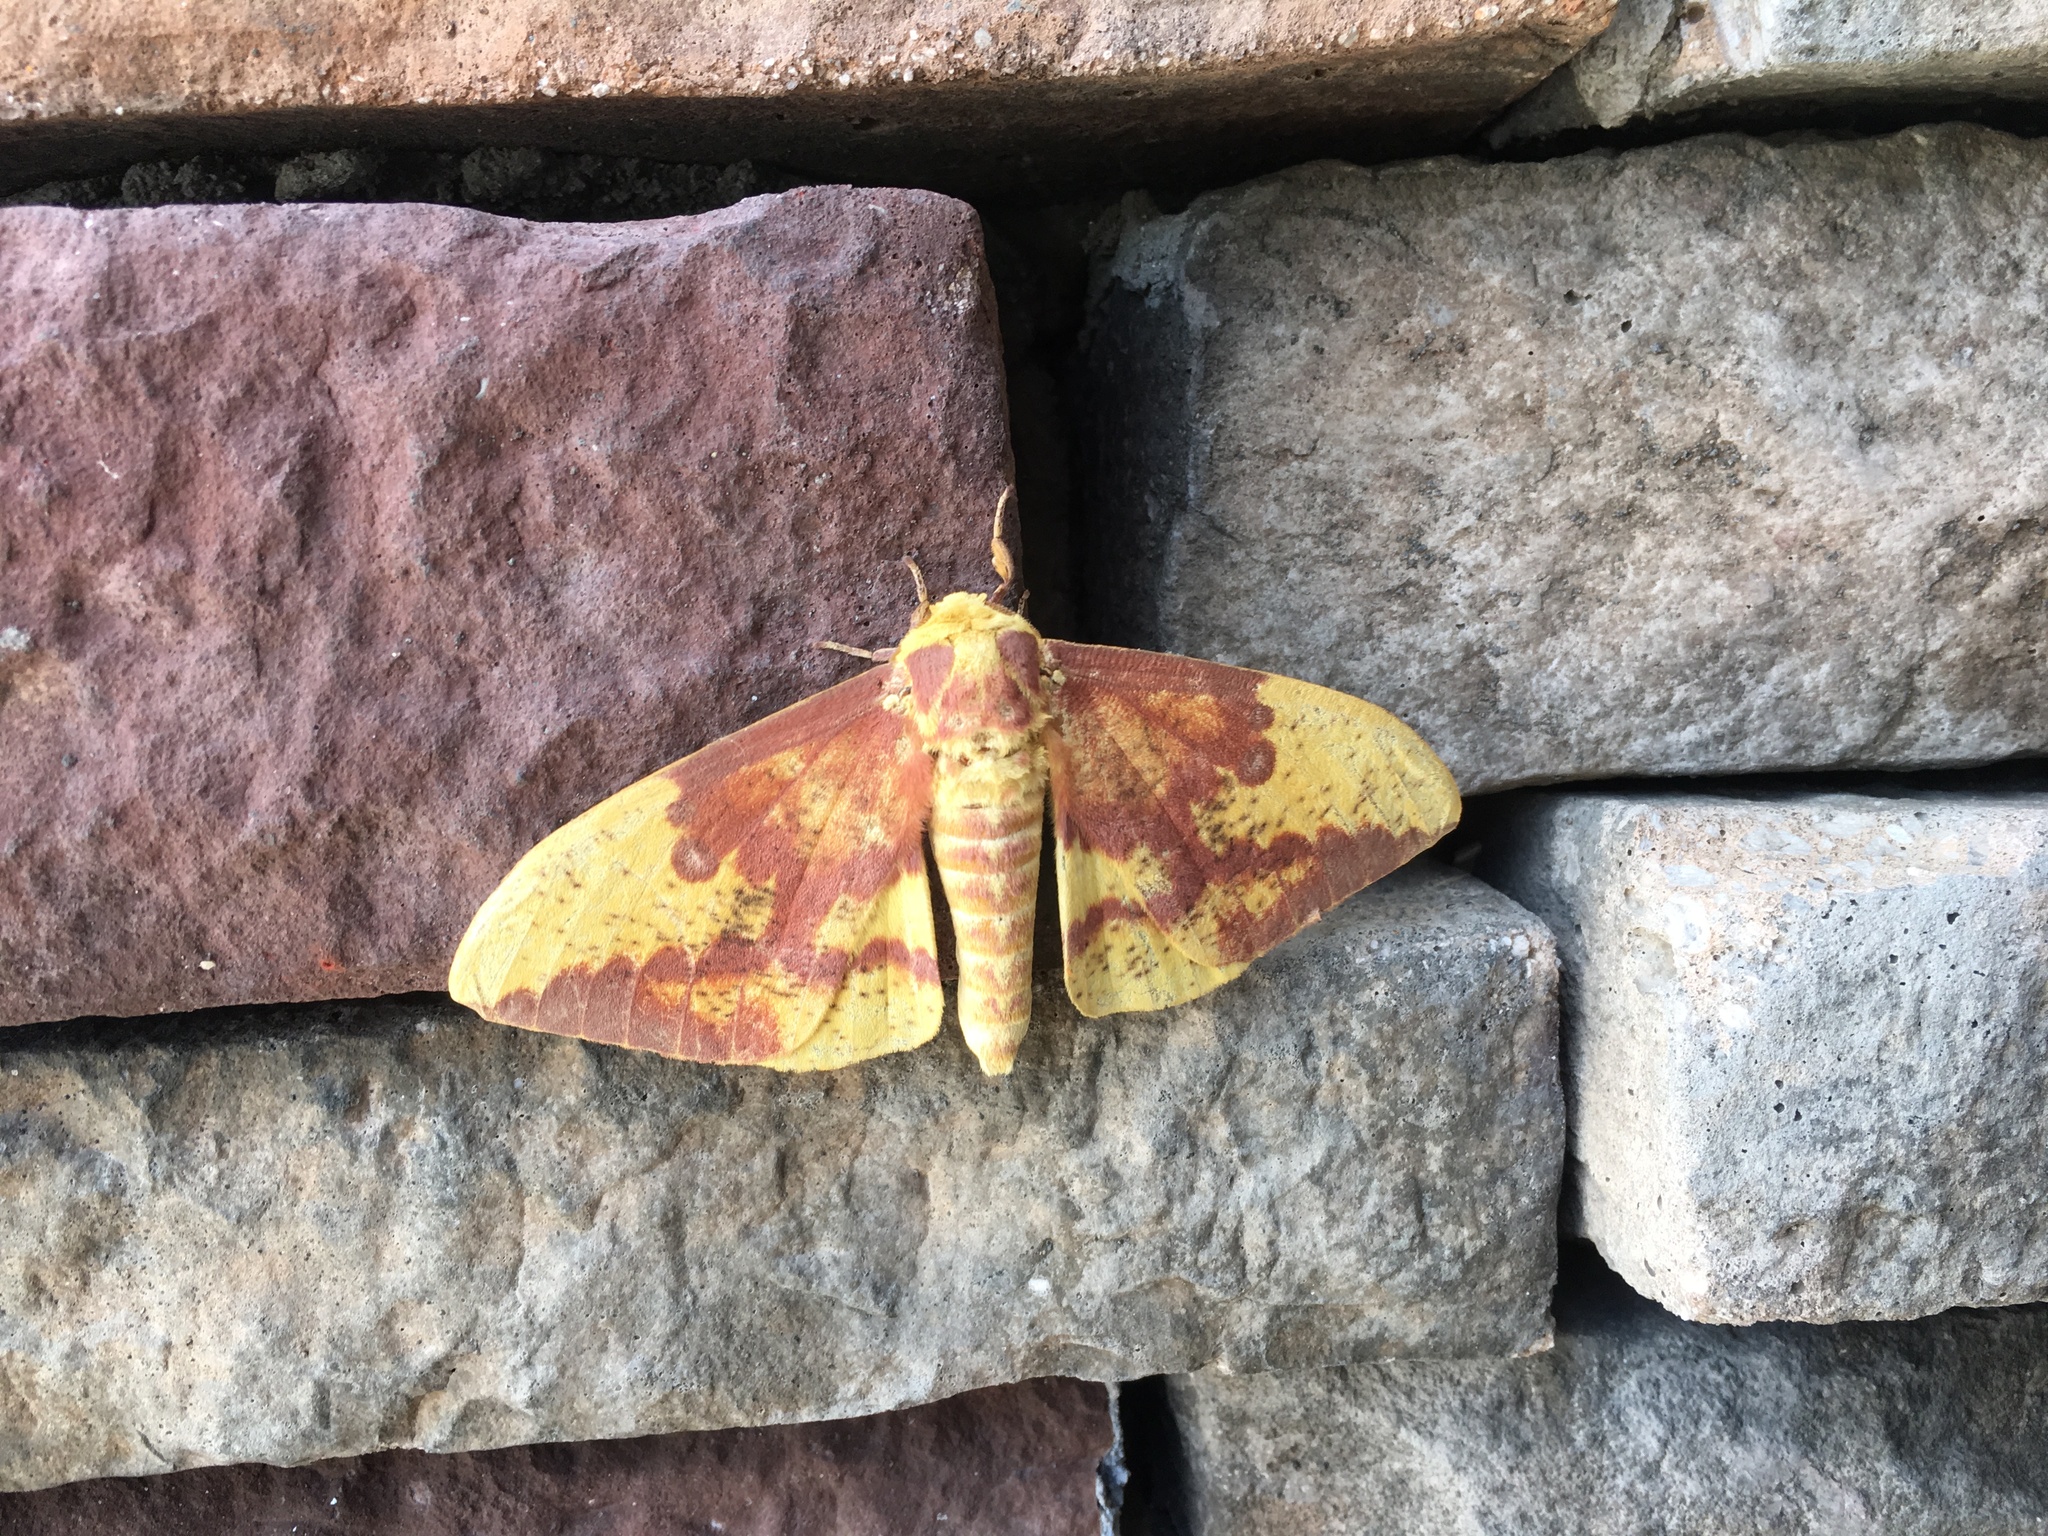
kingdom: Animalia
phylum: Arthropoda
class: Insecta
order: Lepidoptera
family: Saturniidae
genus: Eacles
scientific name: Eacles imperialis
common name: Imperial moth
